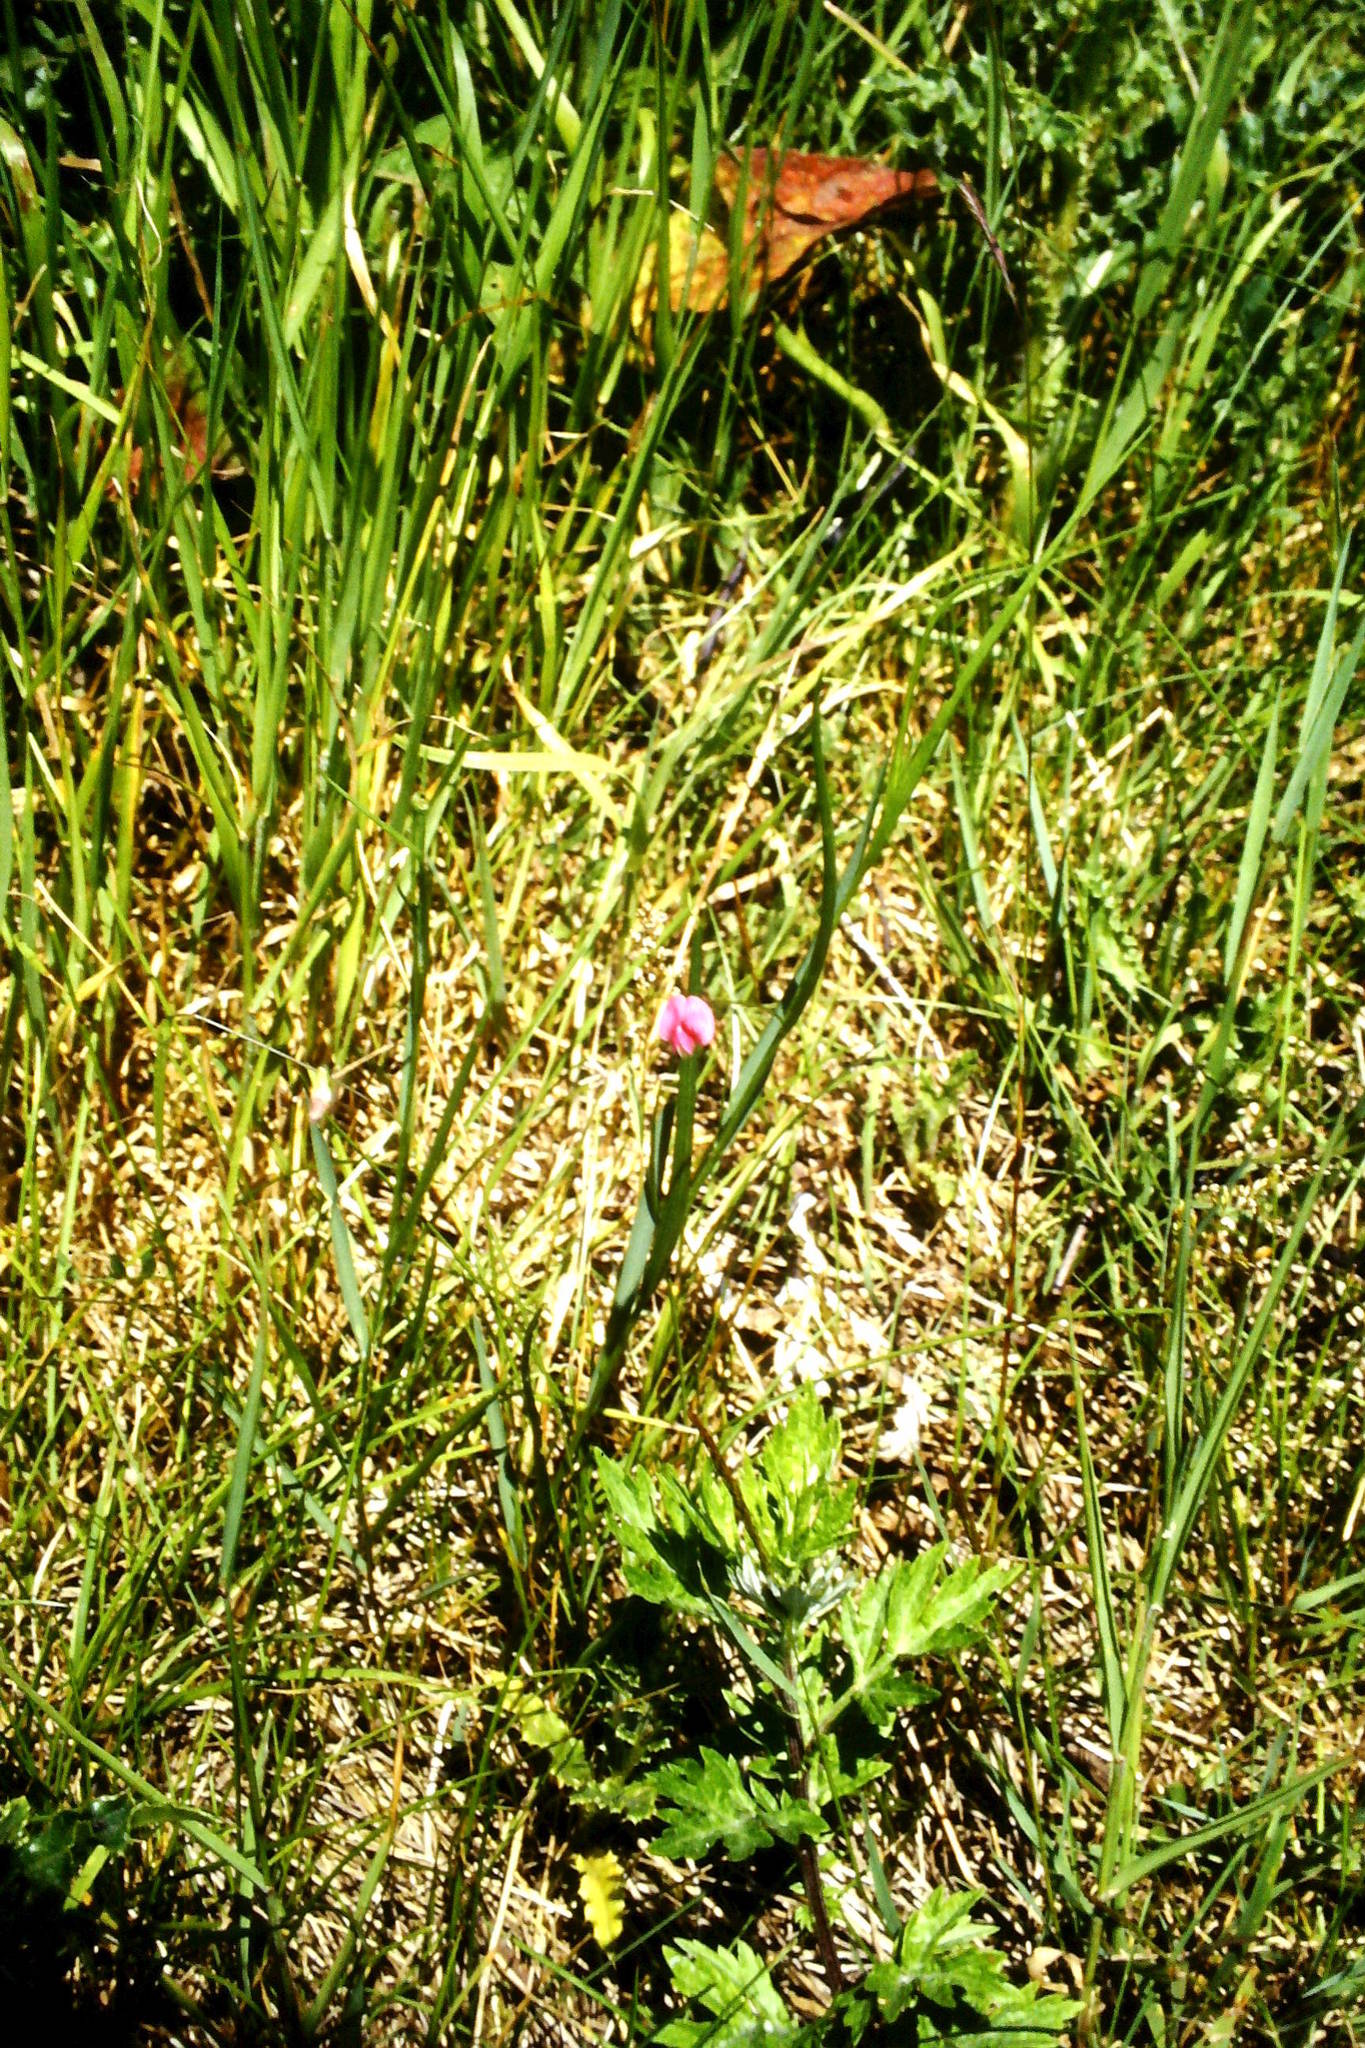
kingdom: Plantae
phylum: Tracheophyta
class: Magnoliopsida
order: Fabales
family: Fabaceae
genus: Lathyrus
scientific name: Lathyrus nissolia
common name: Grass vetchling
